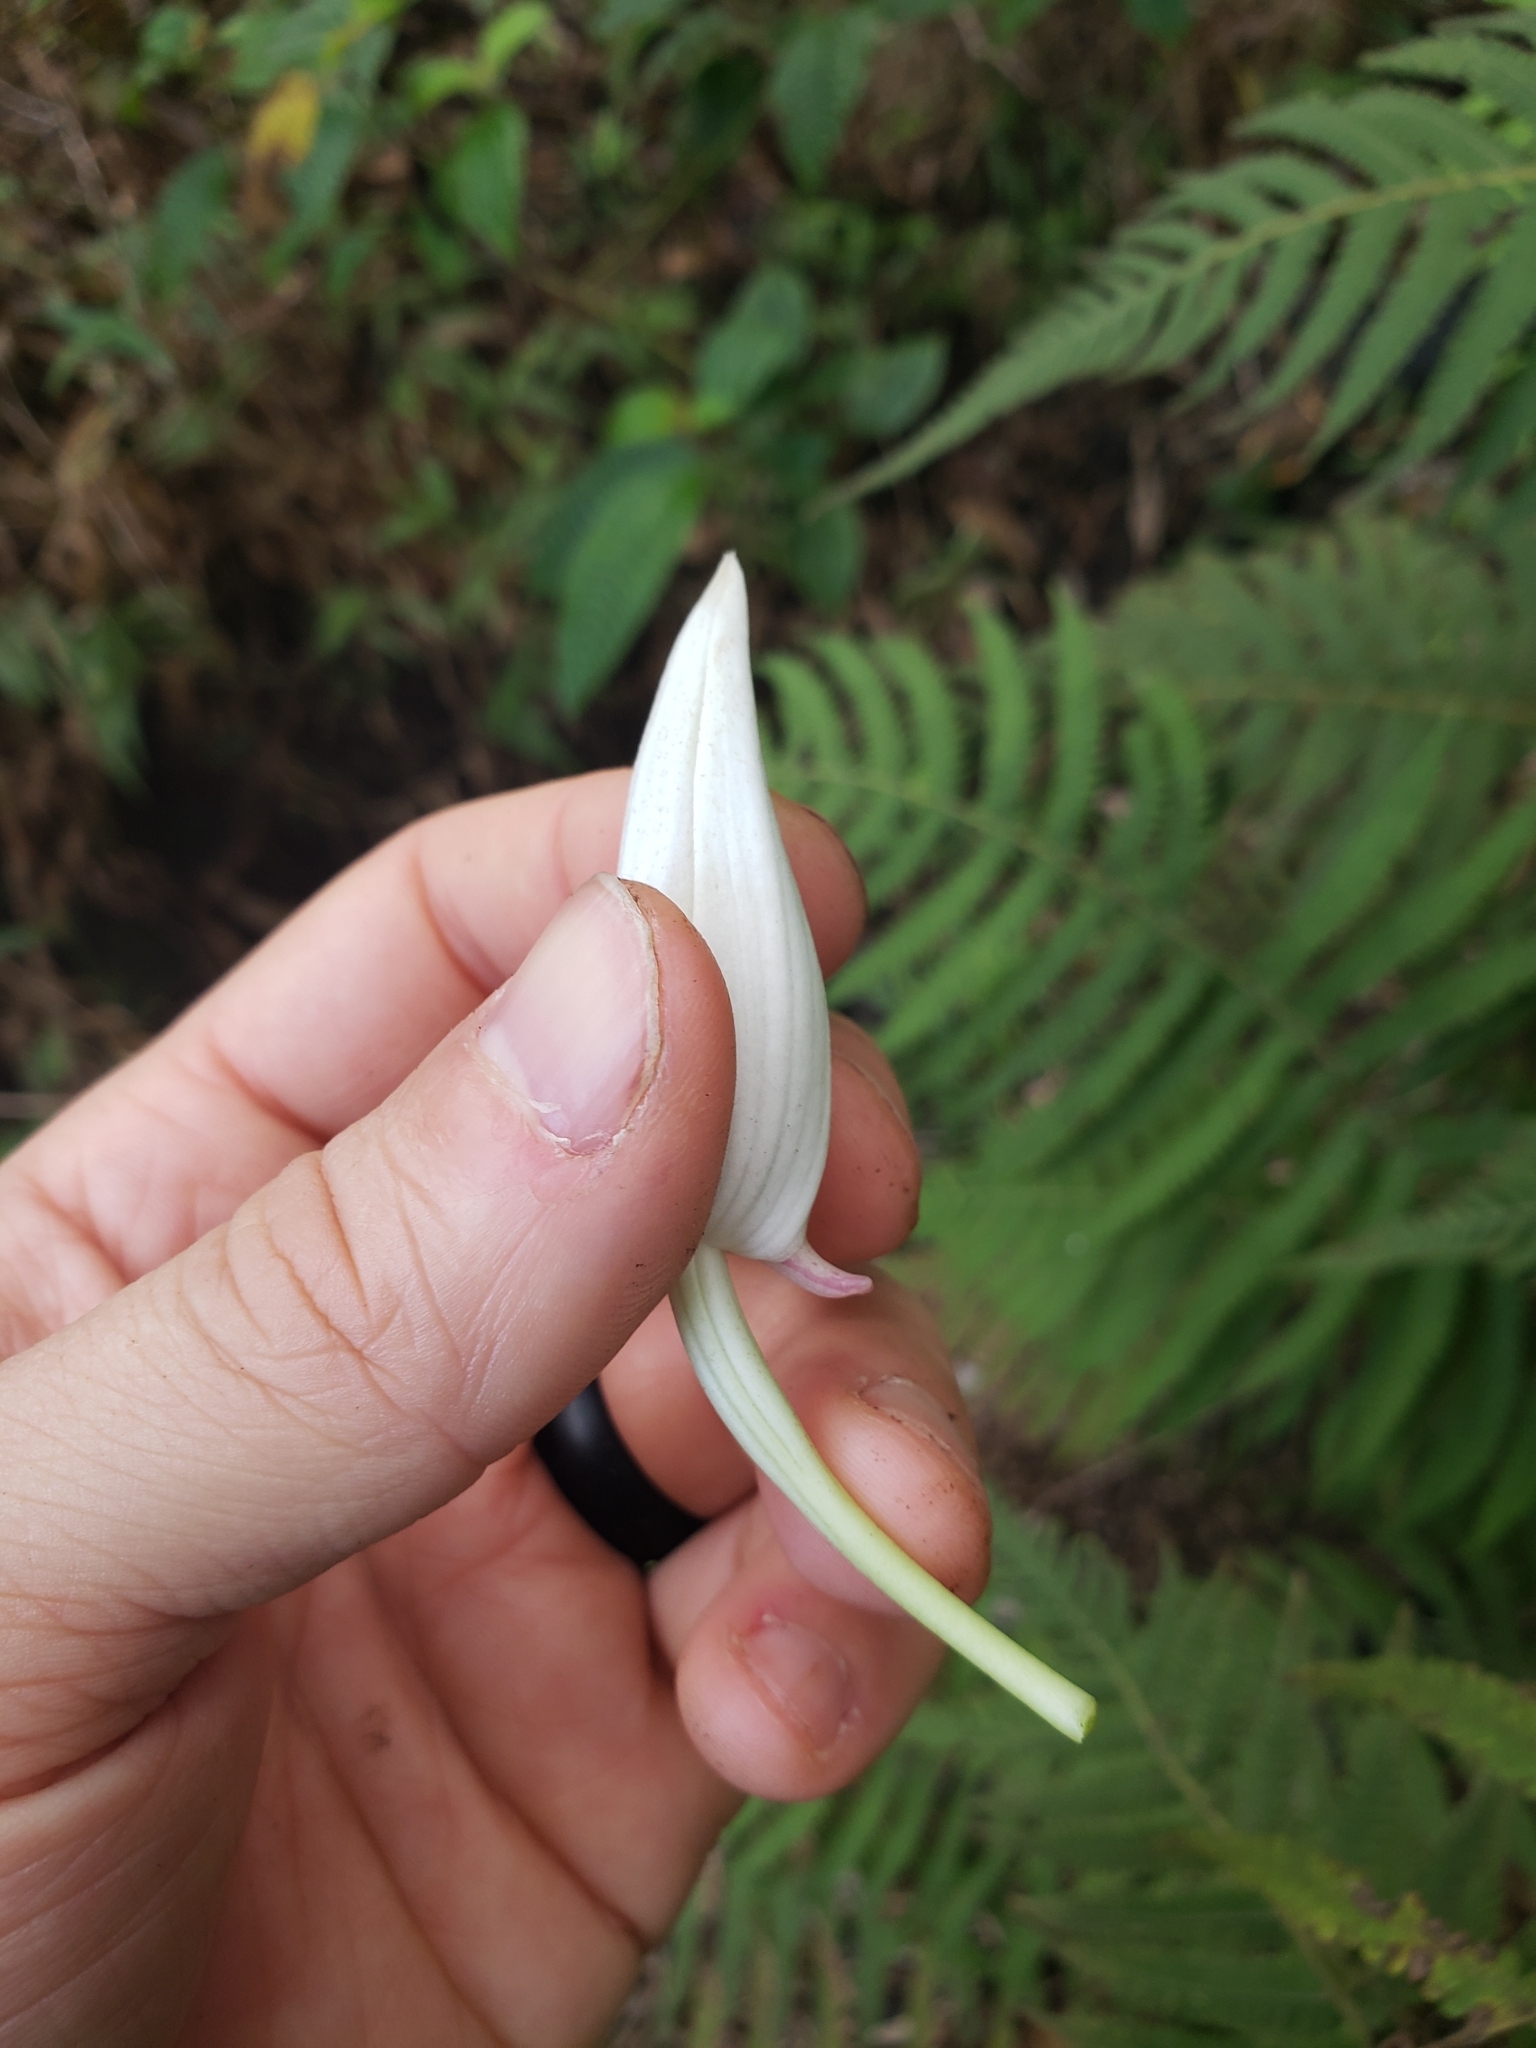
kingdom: Plantae
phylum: Tracheophyta
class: Liliopsida
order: Asparagales
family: Orchidaceae
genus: Calanthe
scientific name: Calanthe tankervilleae
